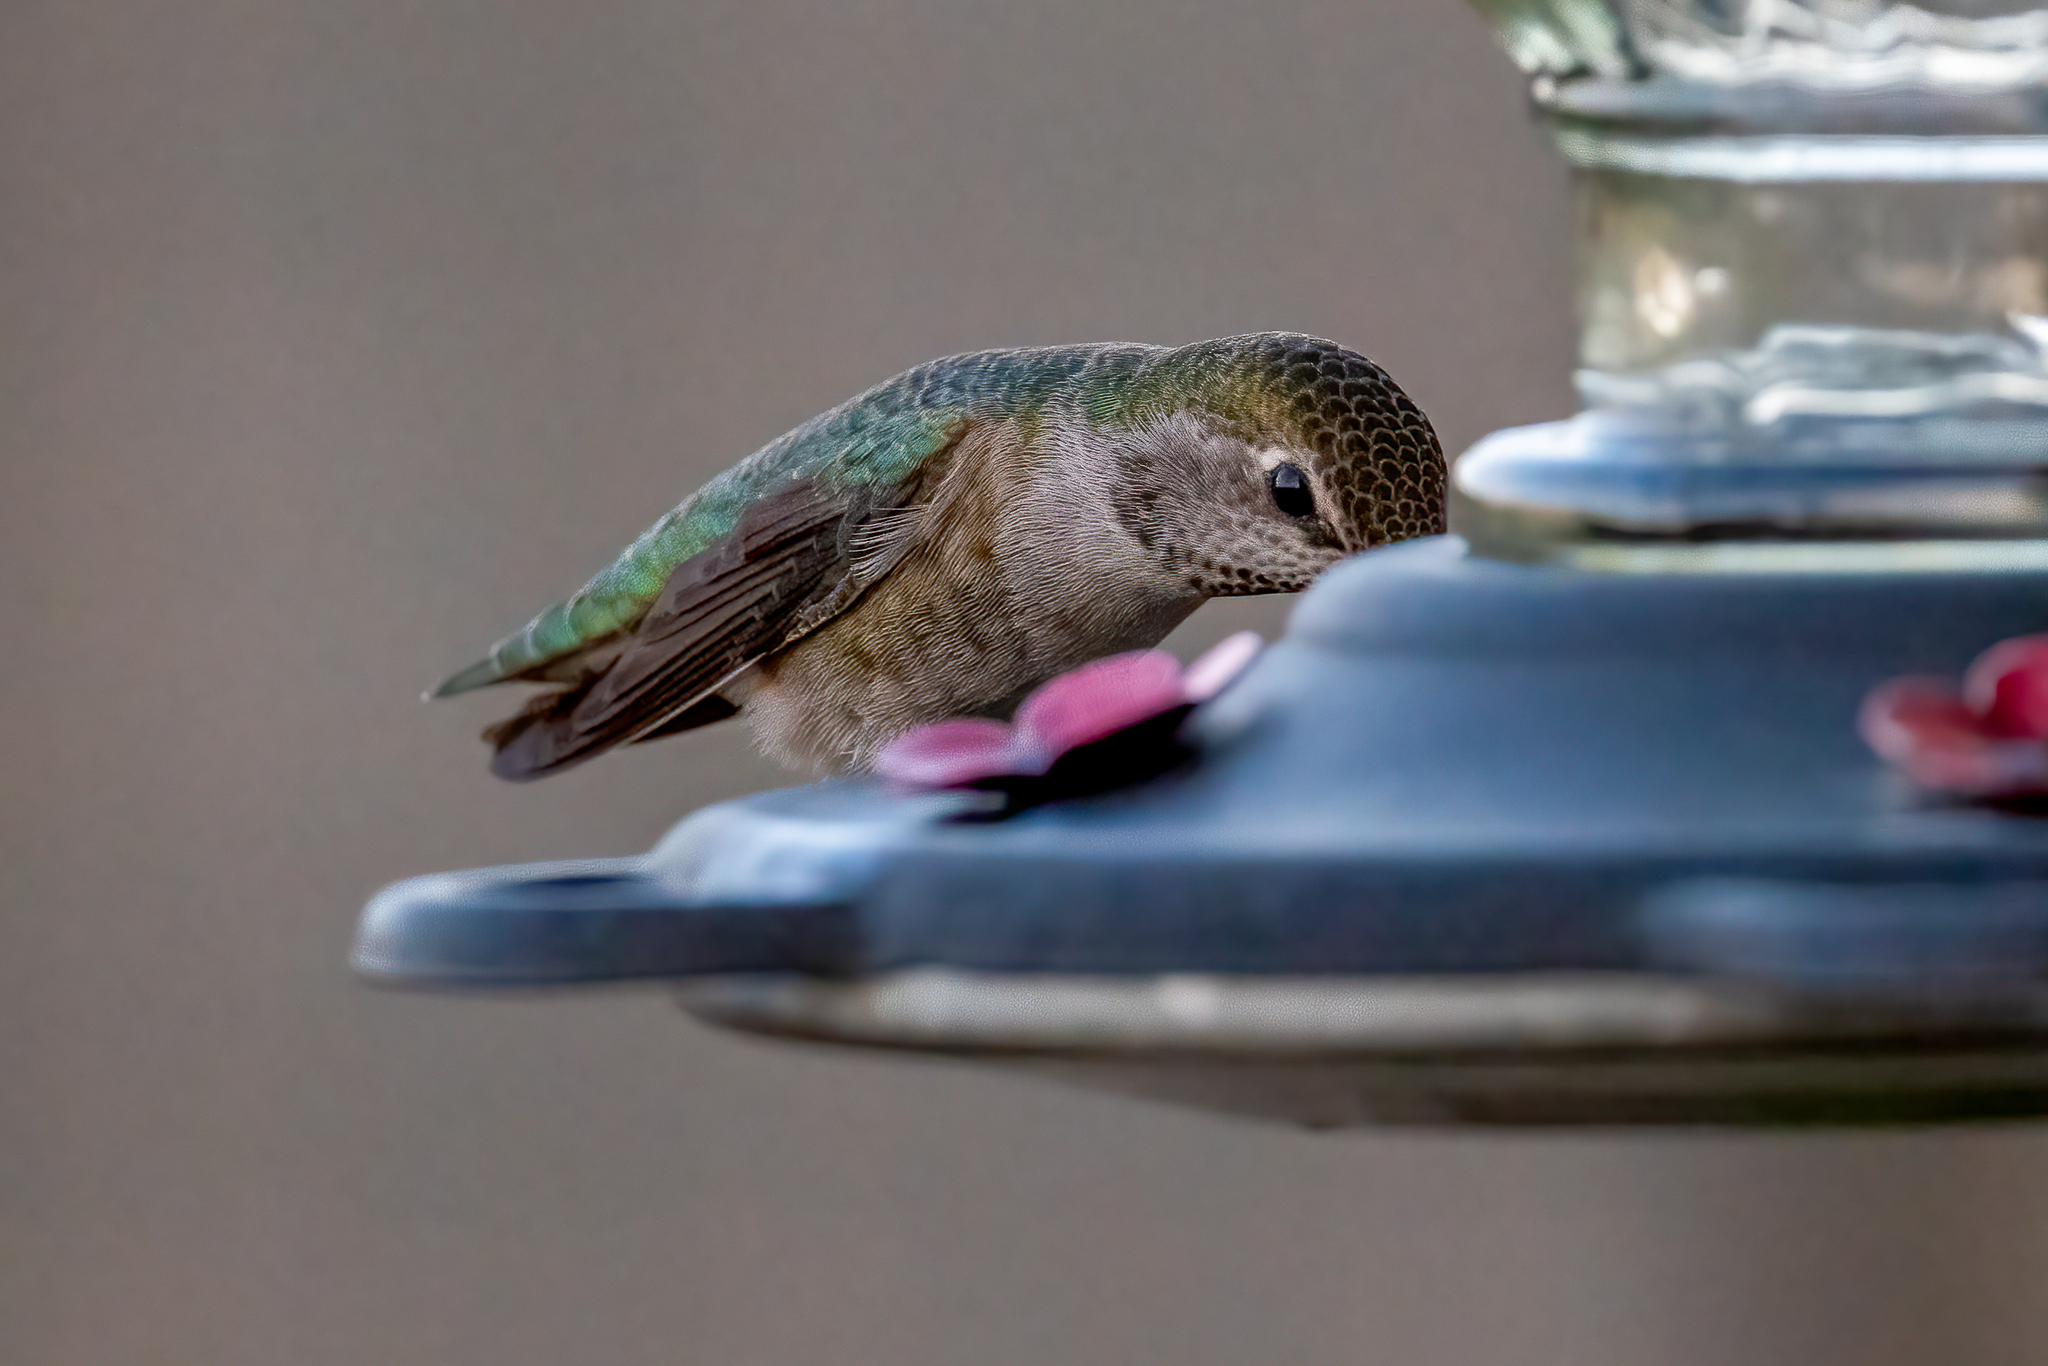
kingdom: Animalia
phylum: Chordata
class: Aves
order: Apodiformes
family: Trochilidae
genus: Calypte
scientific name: Calypte anna
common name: Anna's hummingbird
